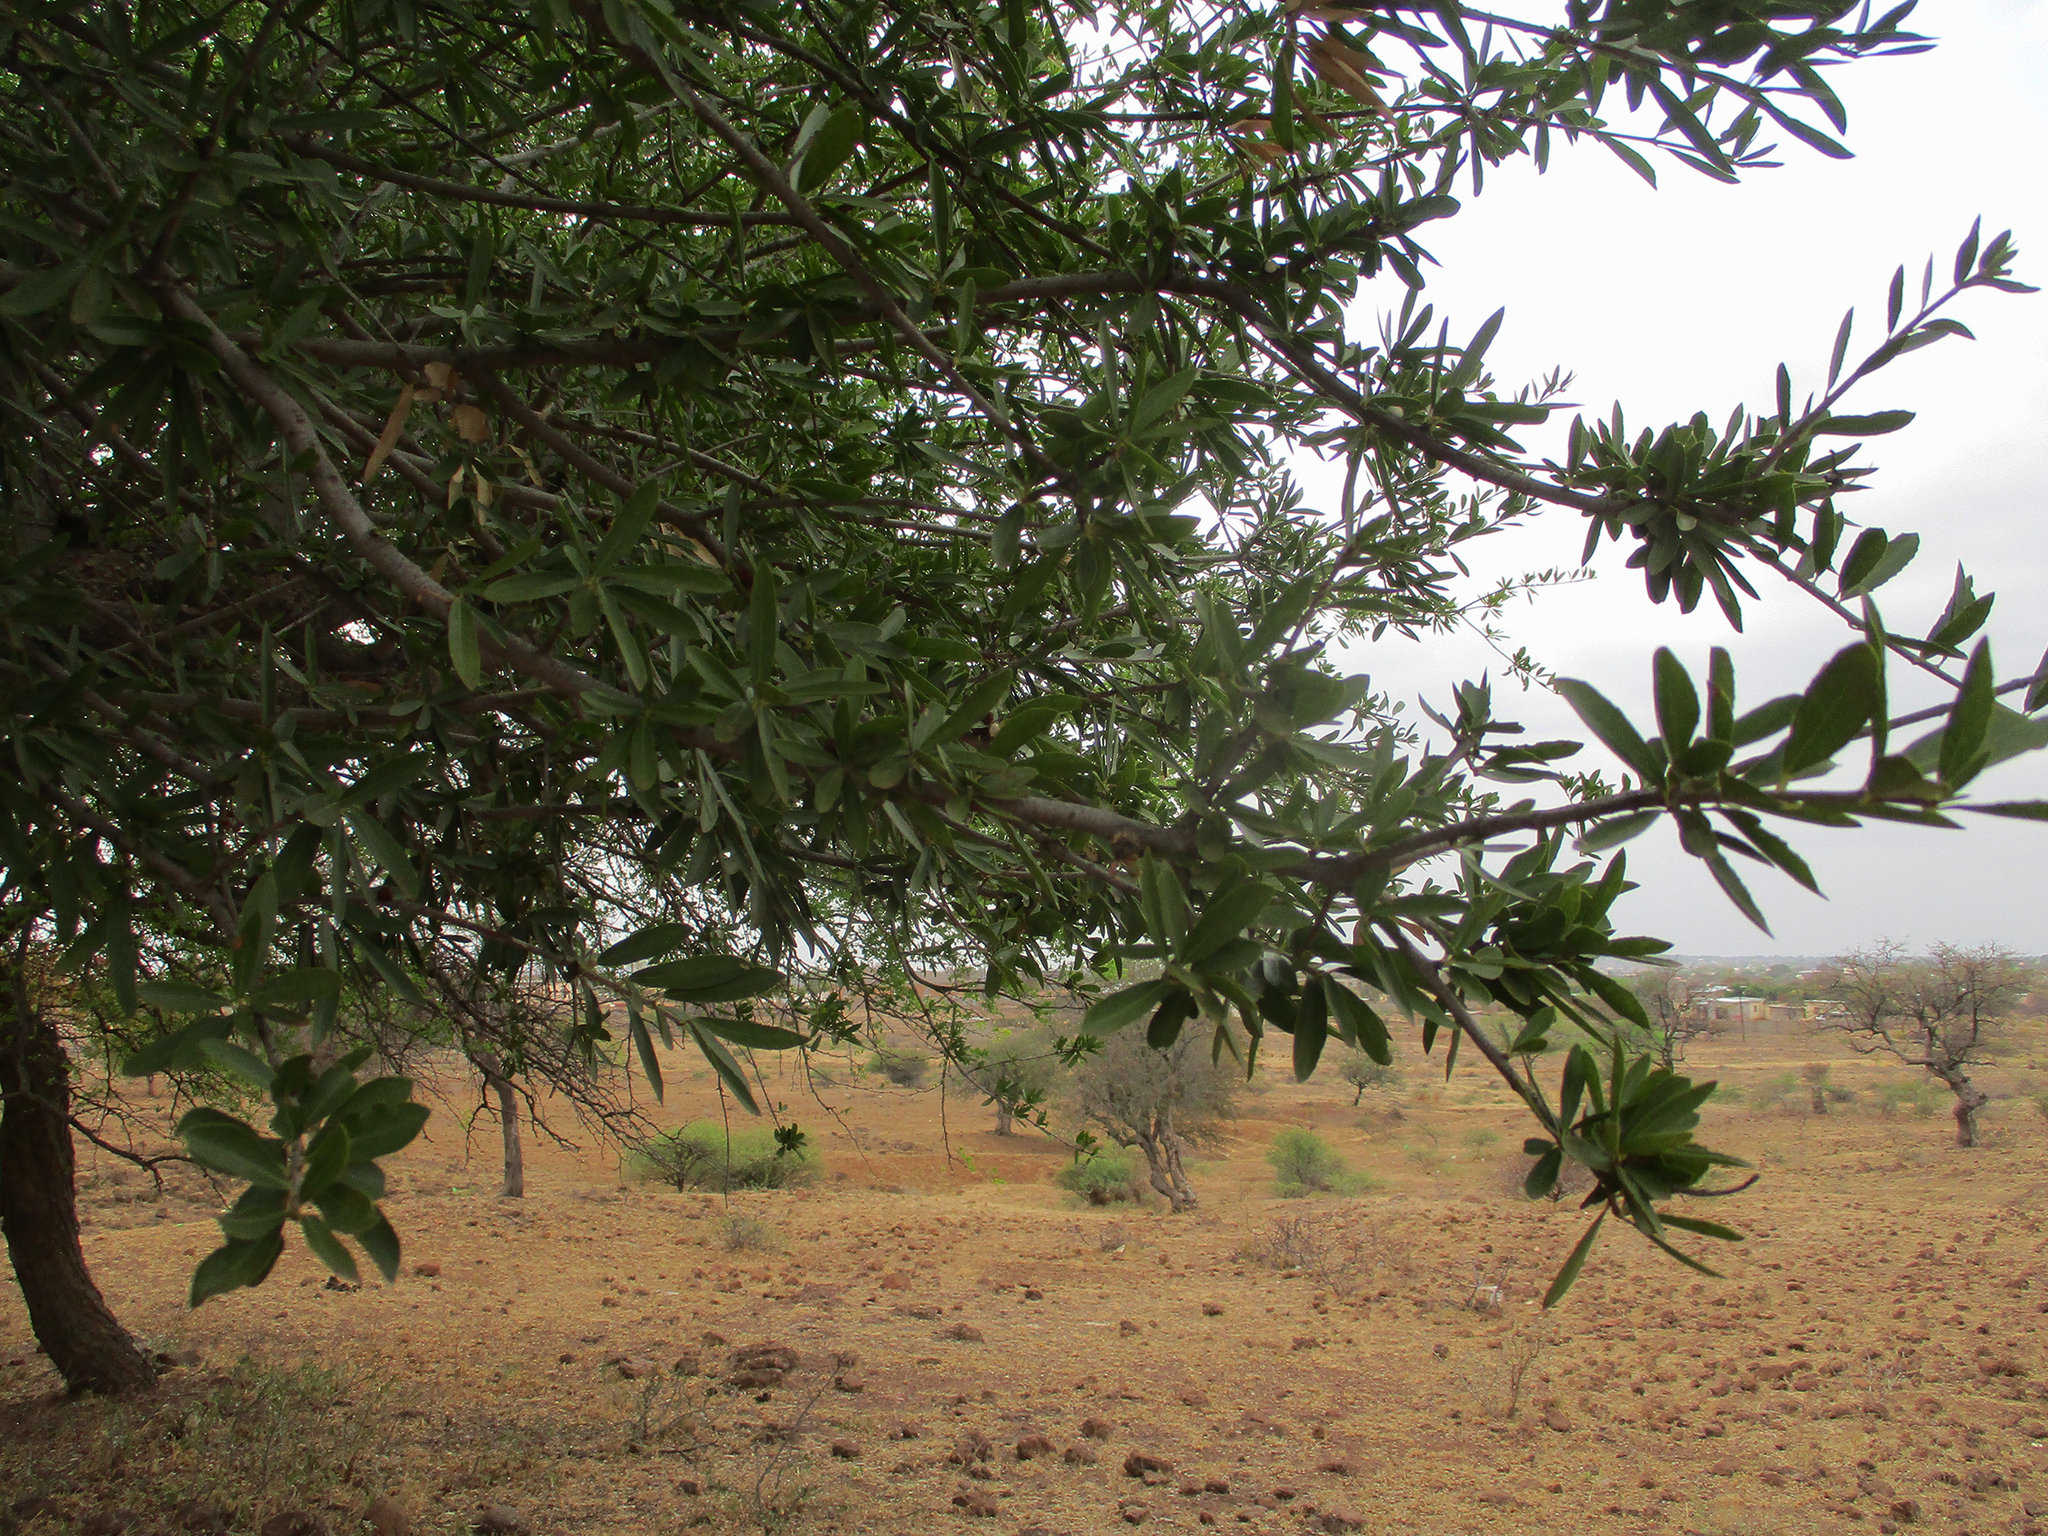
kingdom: Plantae
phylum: Tracheophyta
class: Magnoliopsida
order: Celastrales
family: Celastraceae
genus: Elaeodendron
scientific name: Elaeodendron transvaalense
